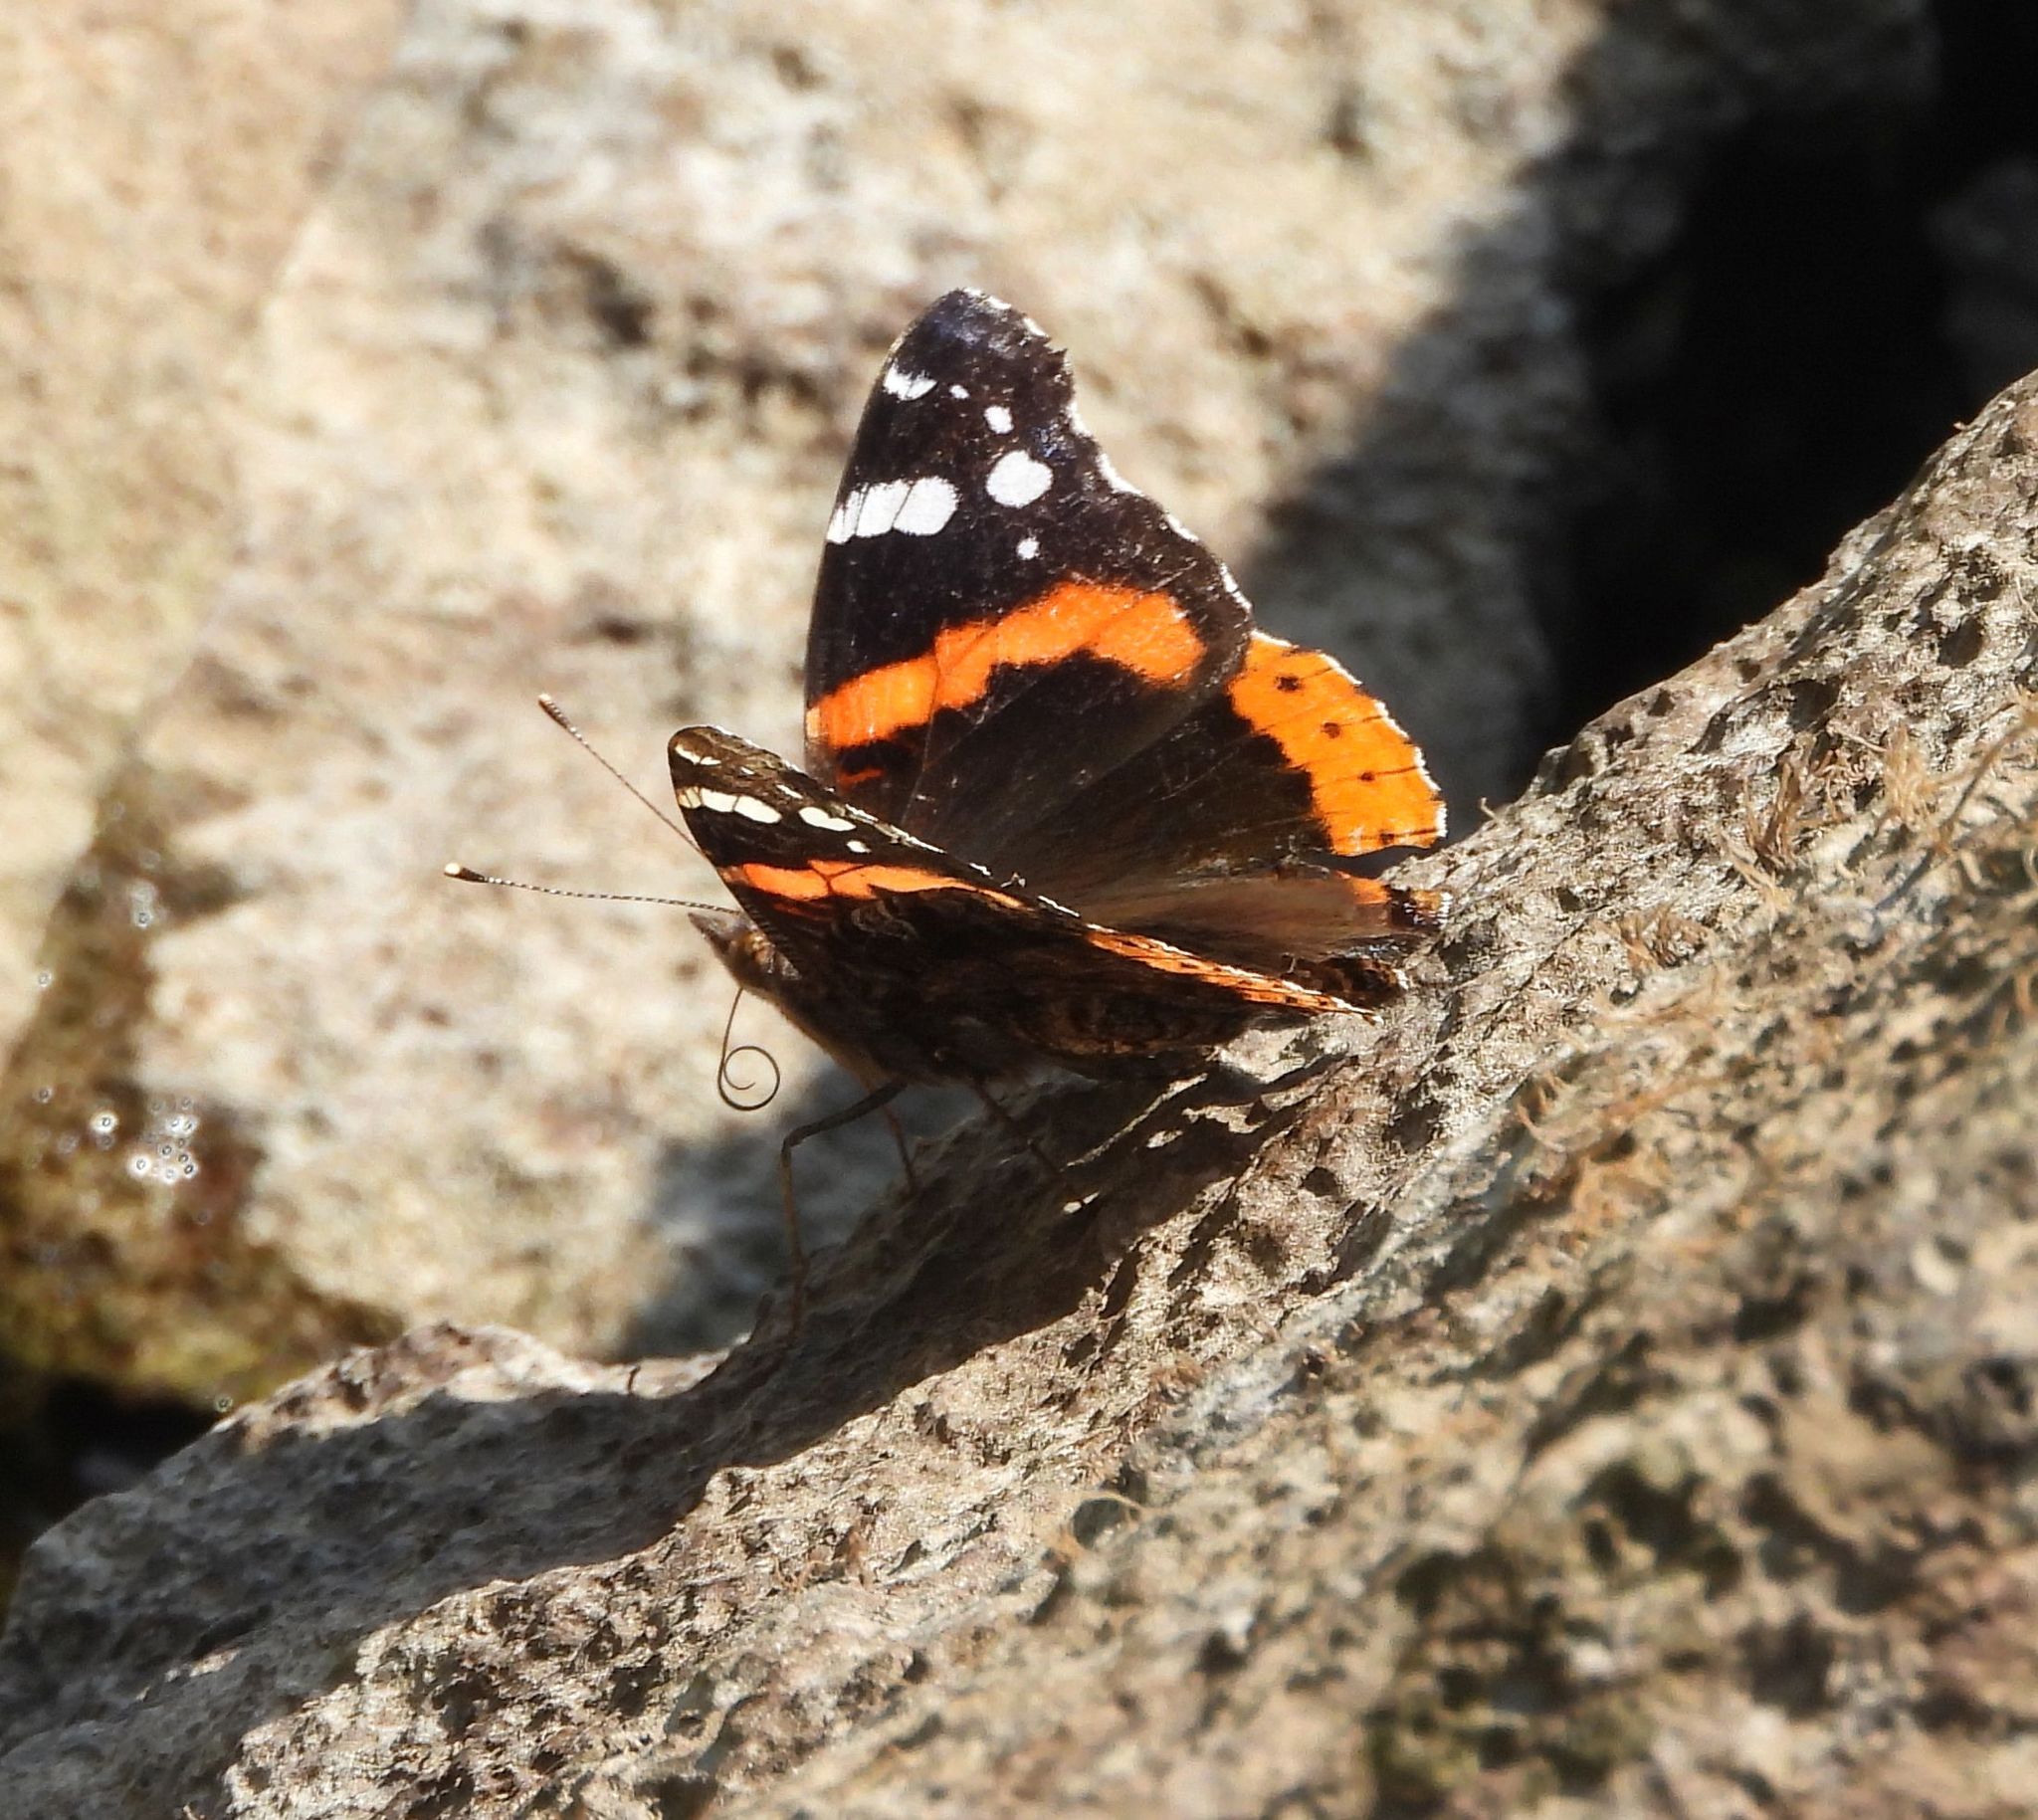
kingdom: Animalia
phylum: Arthropoda
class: Insecta
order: Lepidoptera
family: Nymphalidae
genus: Vanessa
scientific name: Vanessa atalanta
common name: Red admiral
